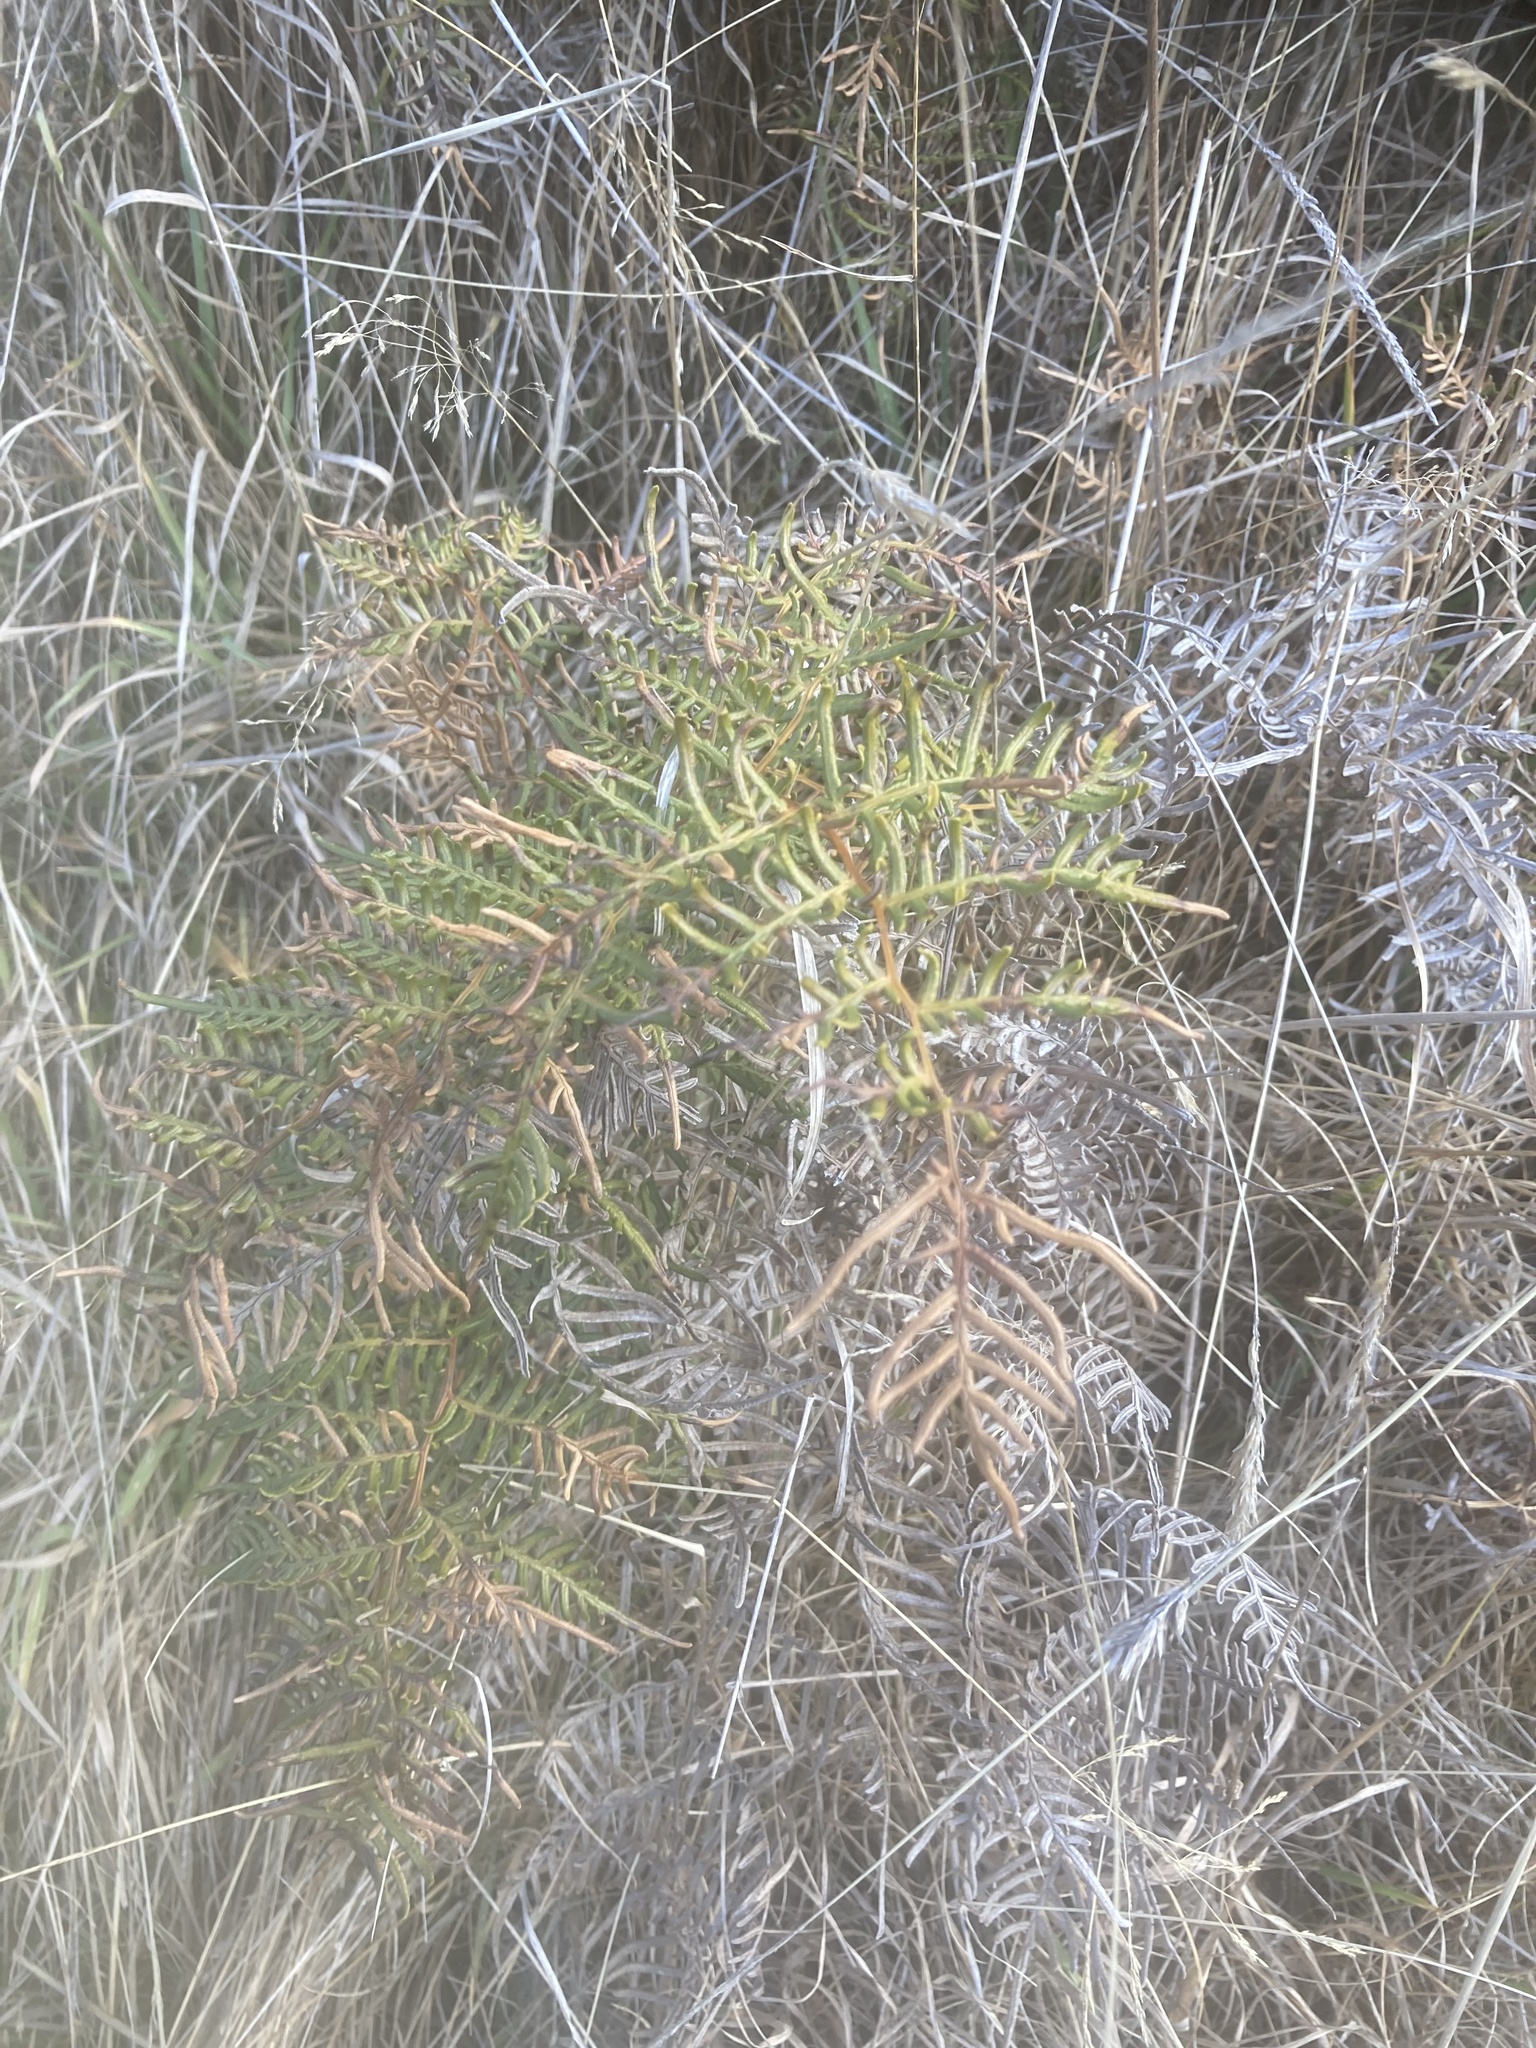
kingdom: Plantae
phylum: Tracheophyta
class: Polypodiopsida
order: Polypodiales
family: Dennstaedtiaceae
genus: Pteridium
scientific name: Pteridium esculentum
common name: Bracken fern
